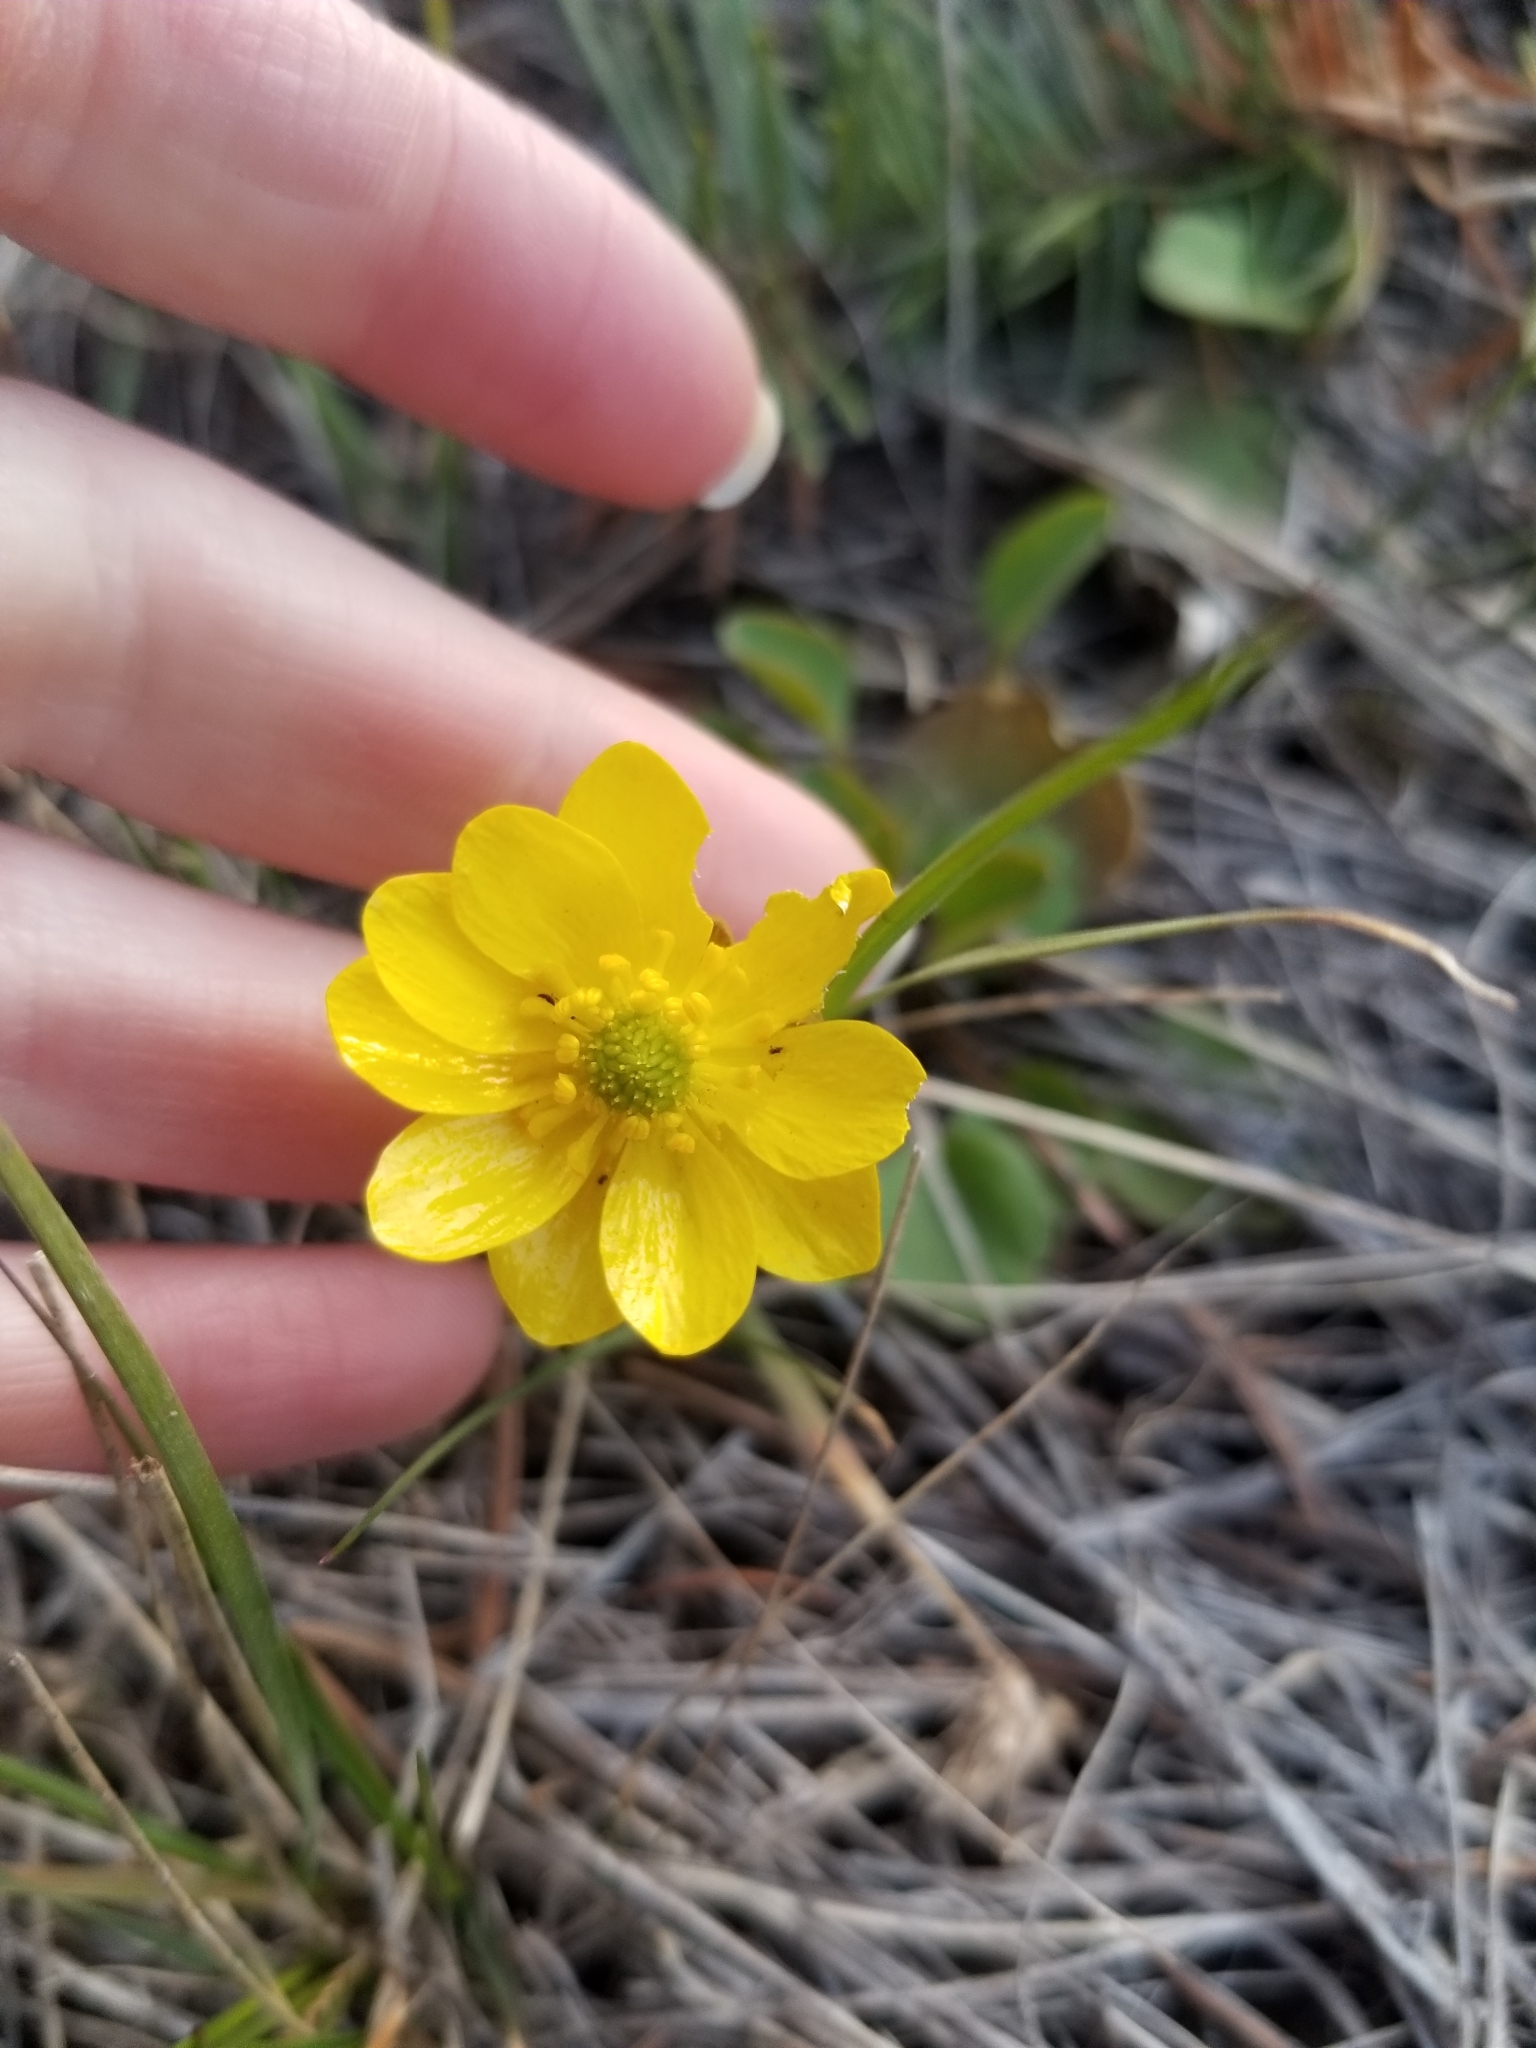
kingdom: Plantae
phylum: Tracheophyta
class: Magnoliopsida
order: Ranunculales
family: Ranunculaceae
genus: Ranunculus
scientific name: Ranunculus glaberrimus
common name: Sagebrush buttercup
